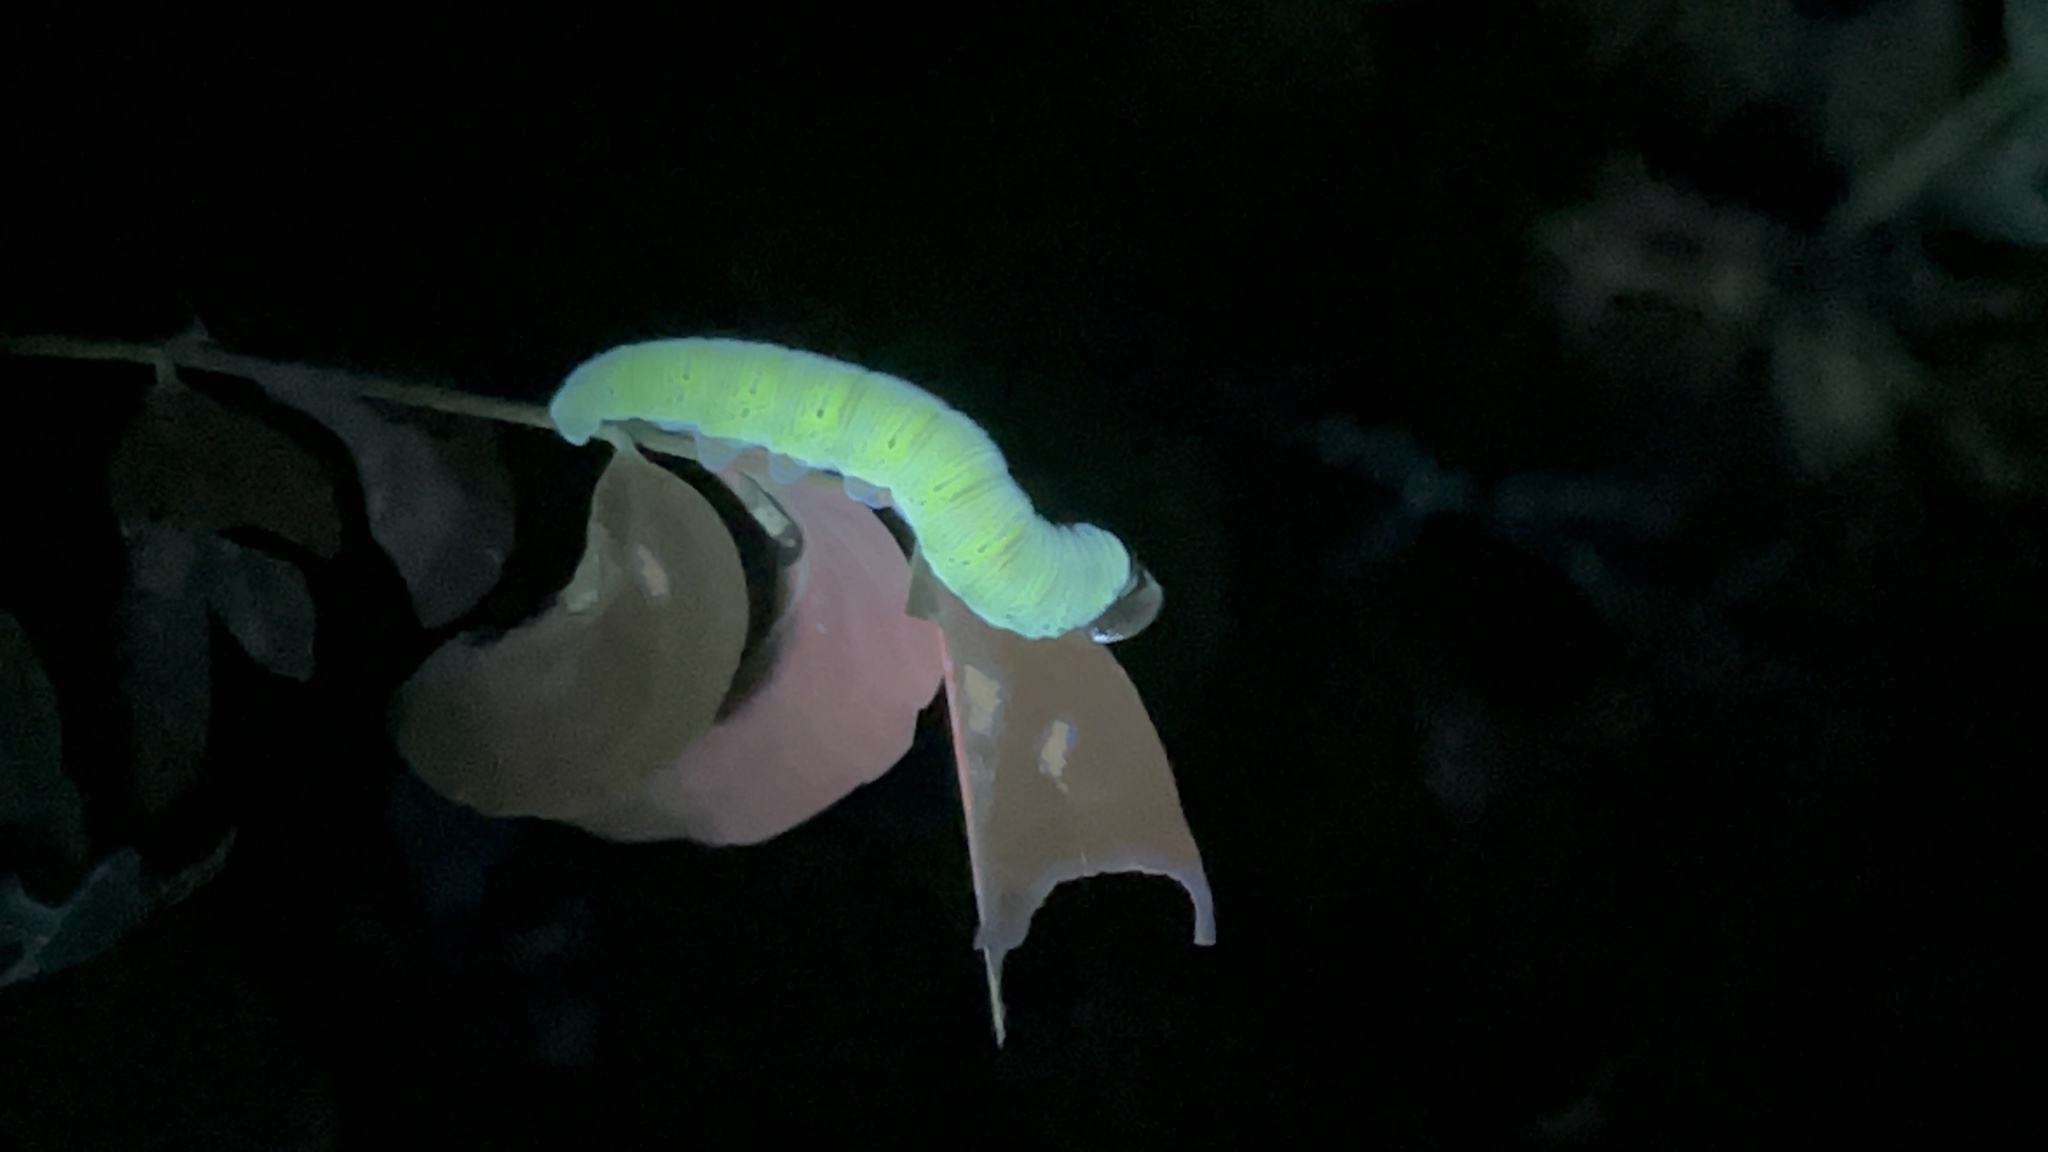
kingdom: Animalia
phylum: Arthropoda
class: Insecta
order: Lepidoptera
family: Hesperiidae
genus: Epargyreus
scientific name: Epargyreus clarus
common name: Silver-spotted skipper
